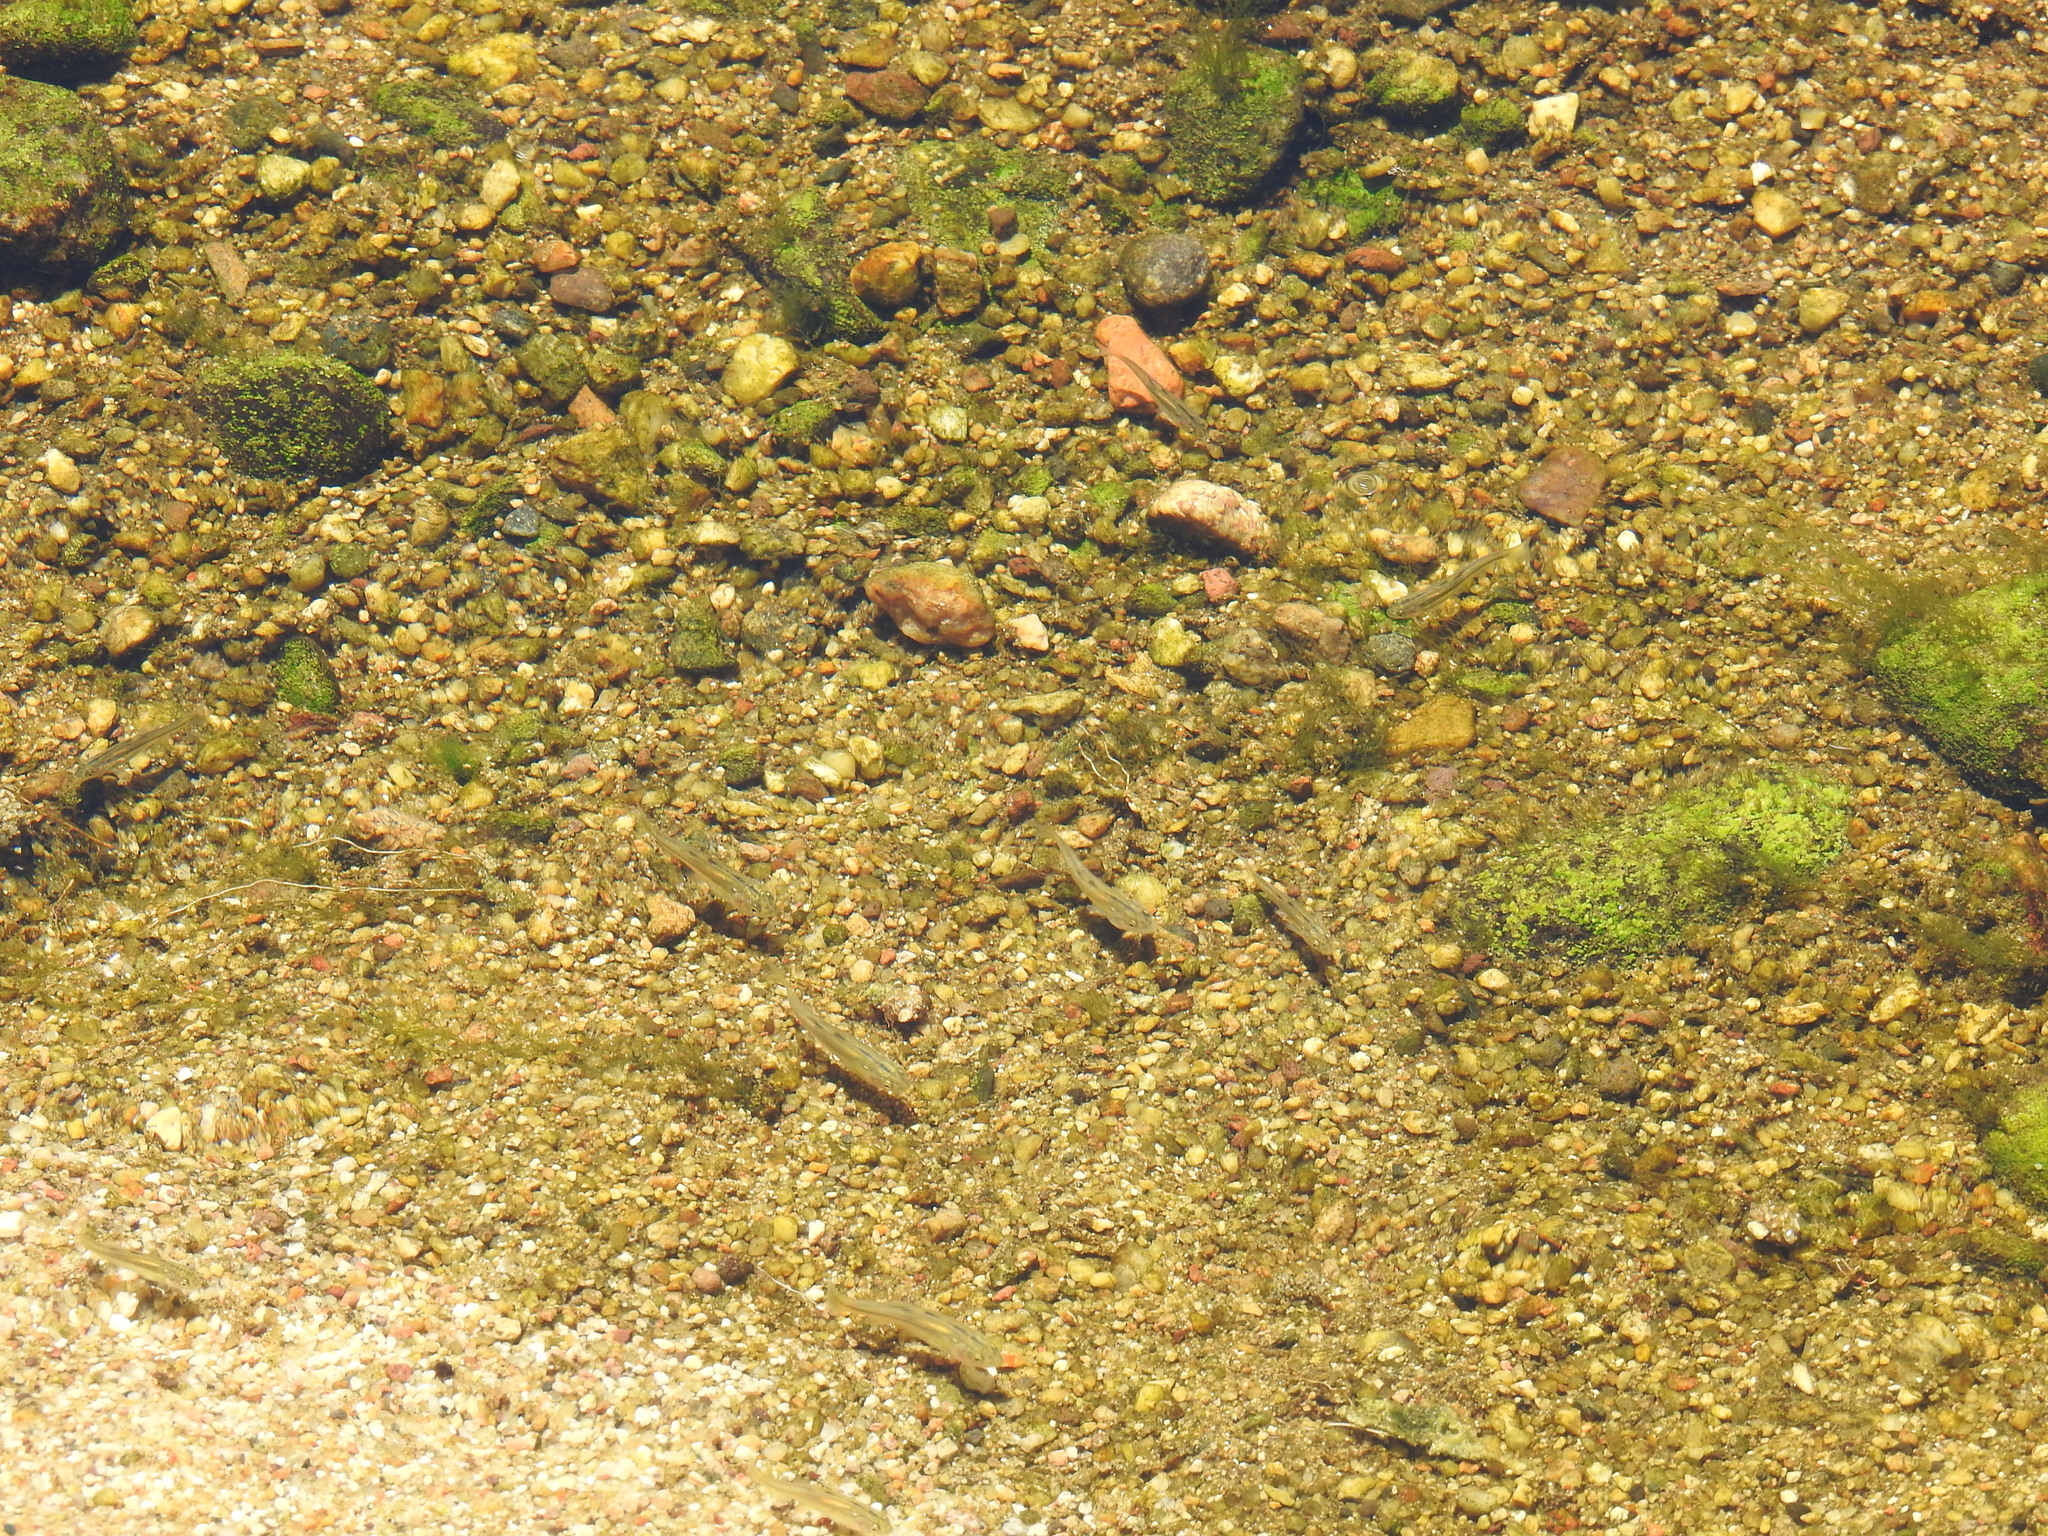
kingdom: Animalia
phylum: Chordata
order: Cypriniformes
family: Cyprinidae
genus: Agosia
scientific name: Agosia chrysogaster
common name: Longfin dace
